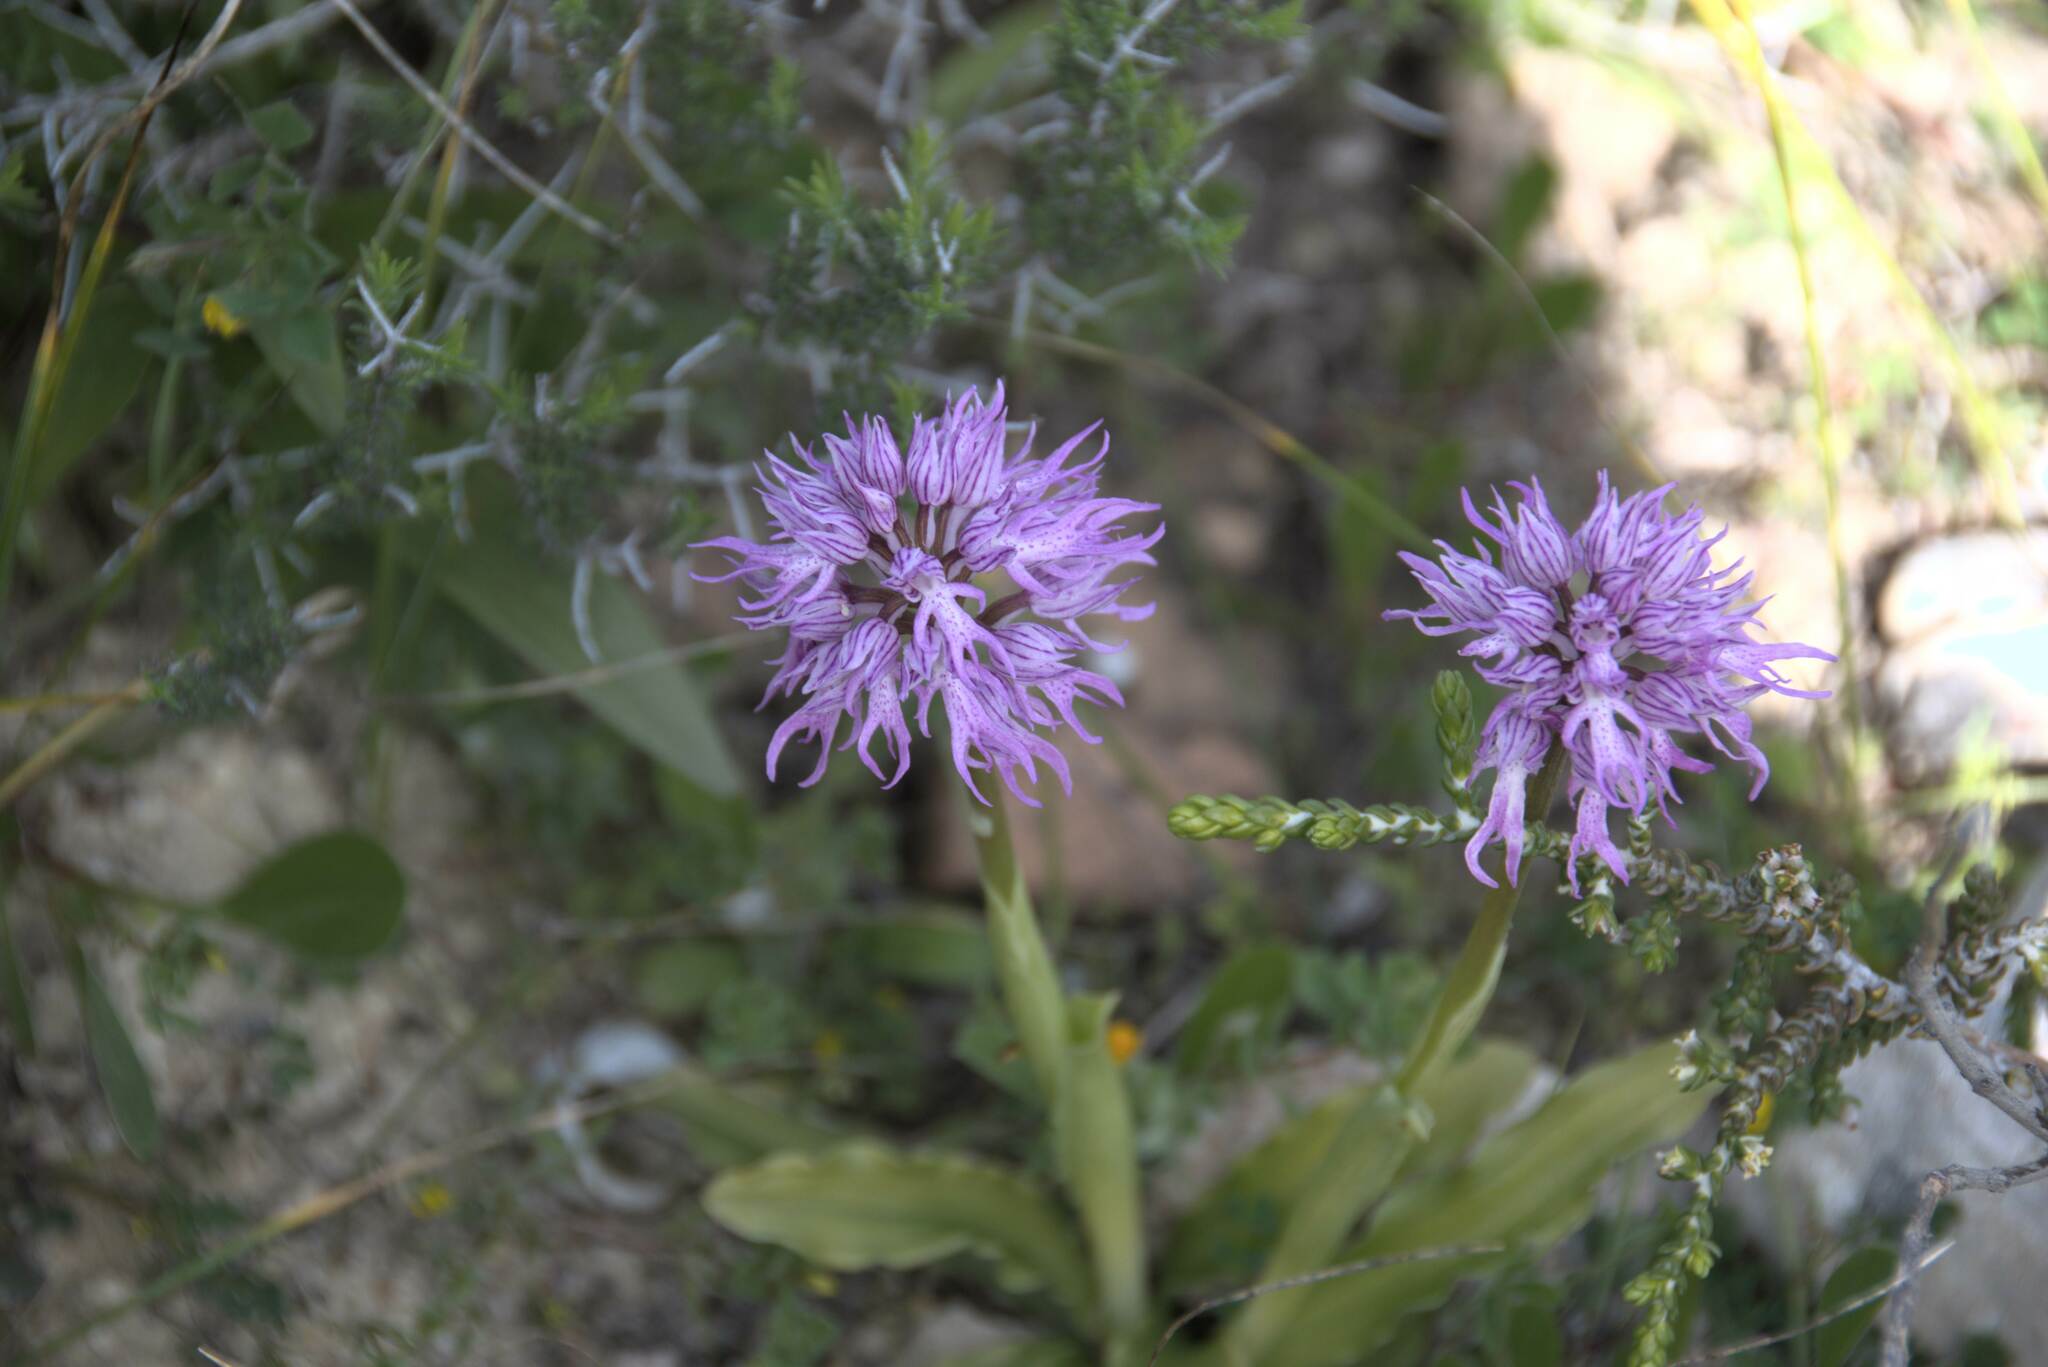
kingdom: Plantae
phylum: Tracheophyta
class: Liliopsida
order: Asparagales
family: Orchidaceae
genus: Orchis
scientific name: Orchis italica
